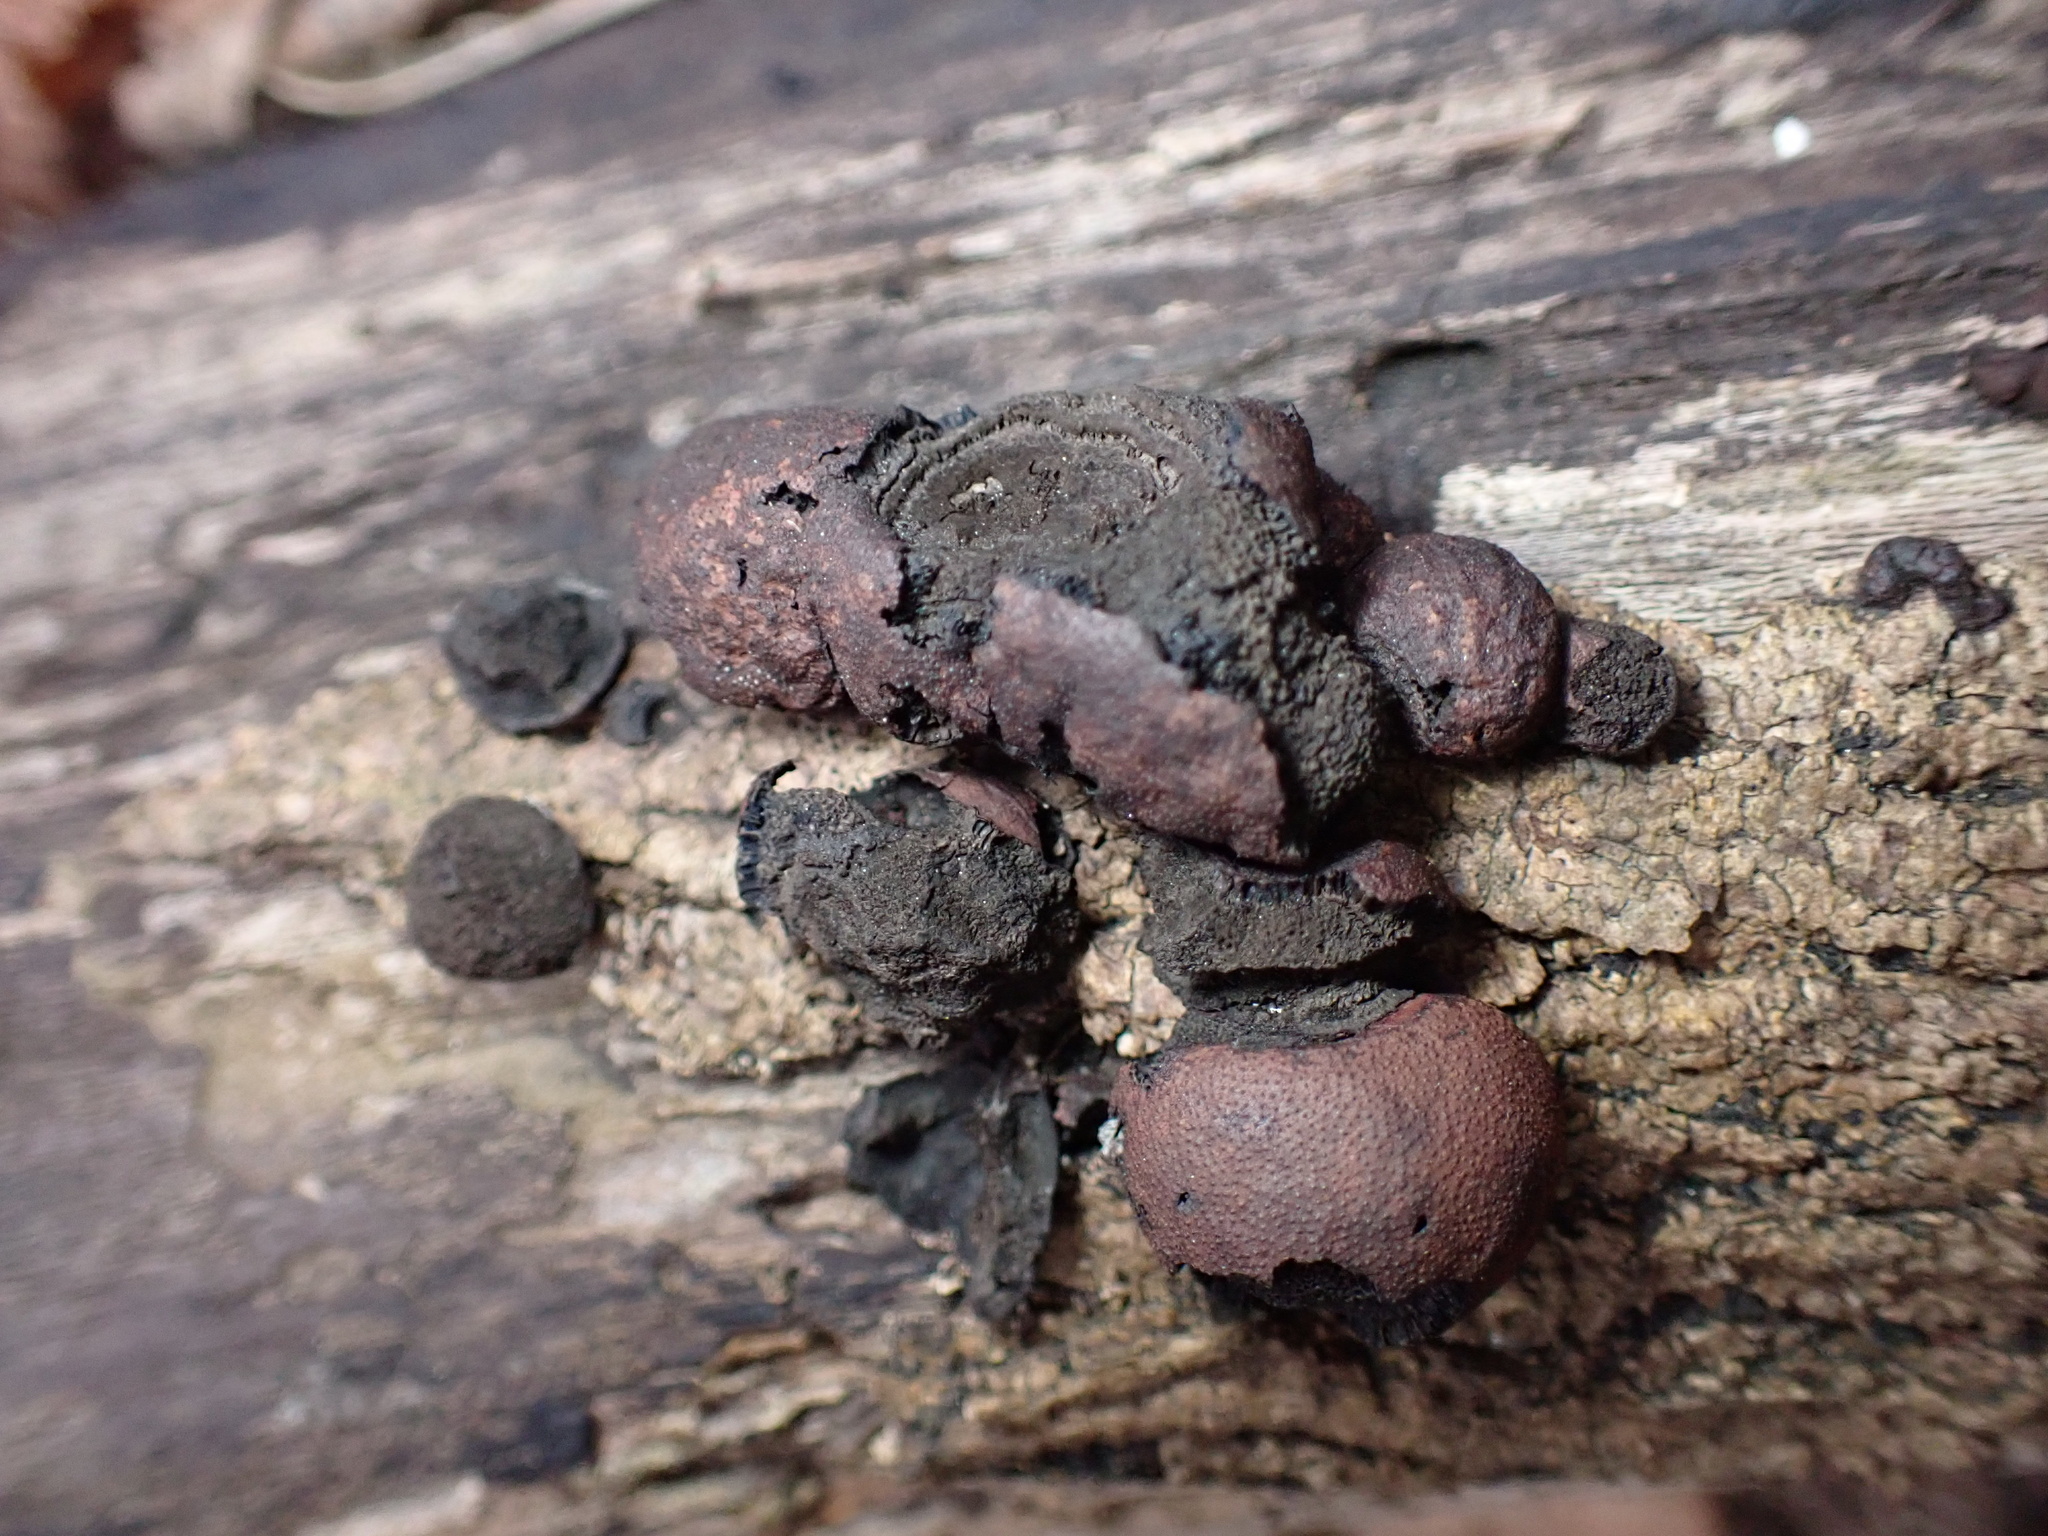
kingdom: Fungi
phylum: Ascomycota
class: Sordariomycetes
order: Xylariales
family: Hypoxylaceae
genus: Daldinia
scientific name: Daldinia childiae
